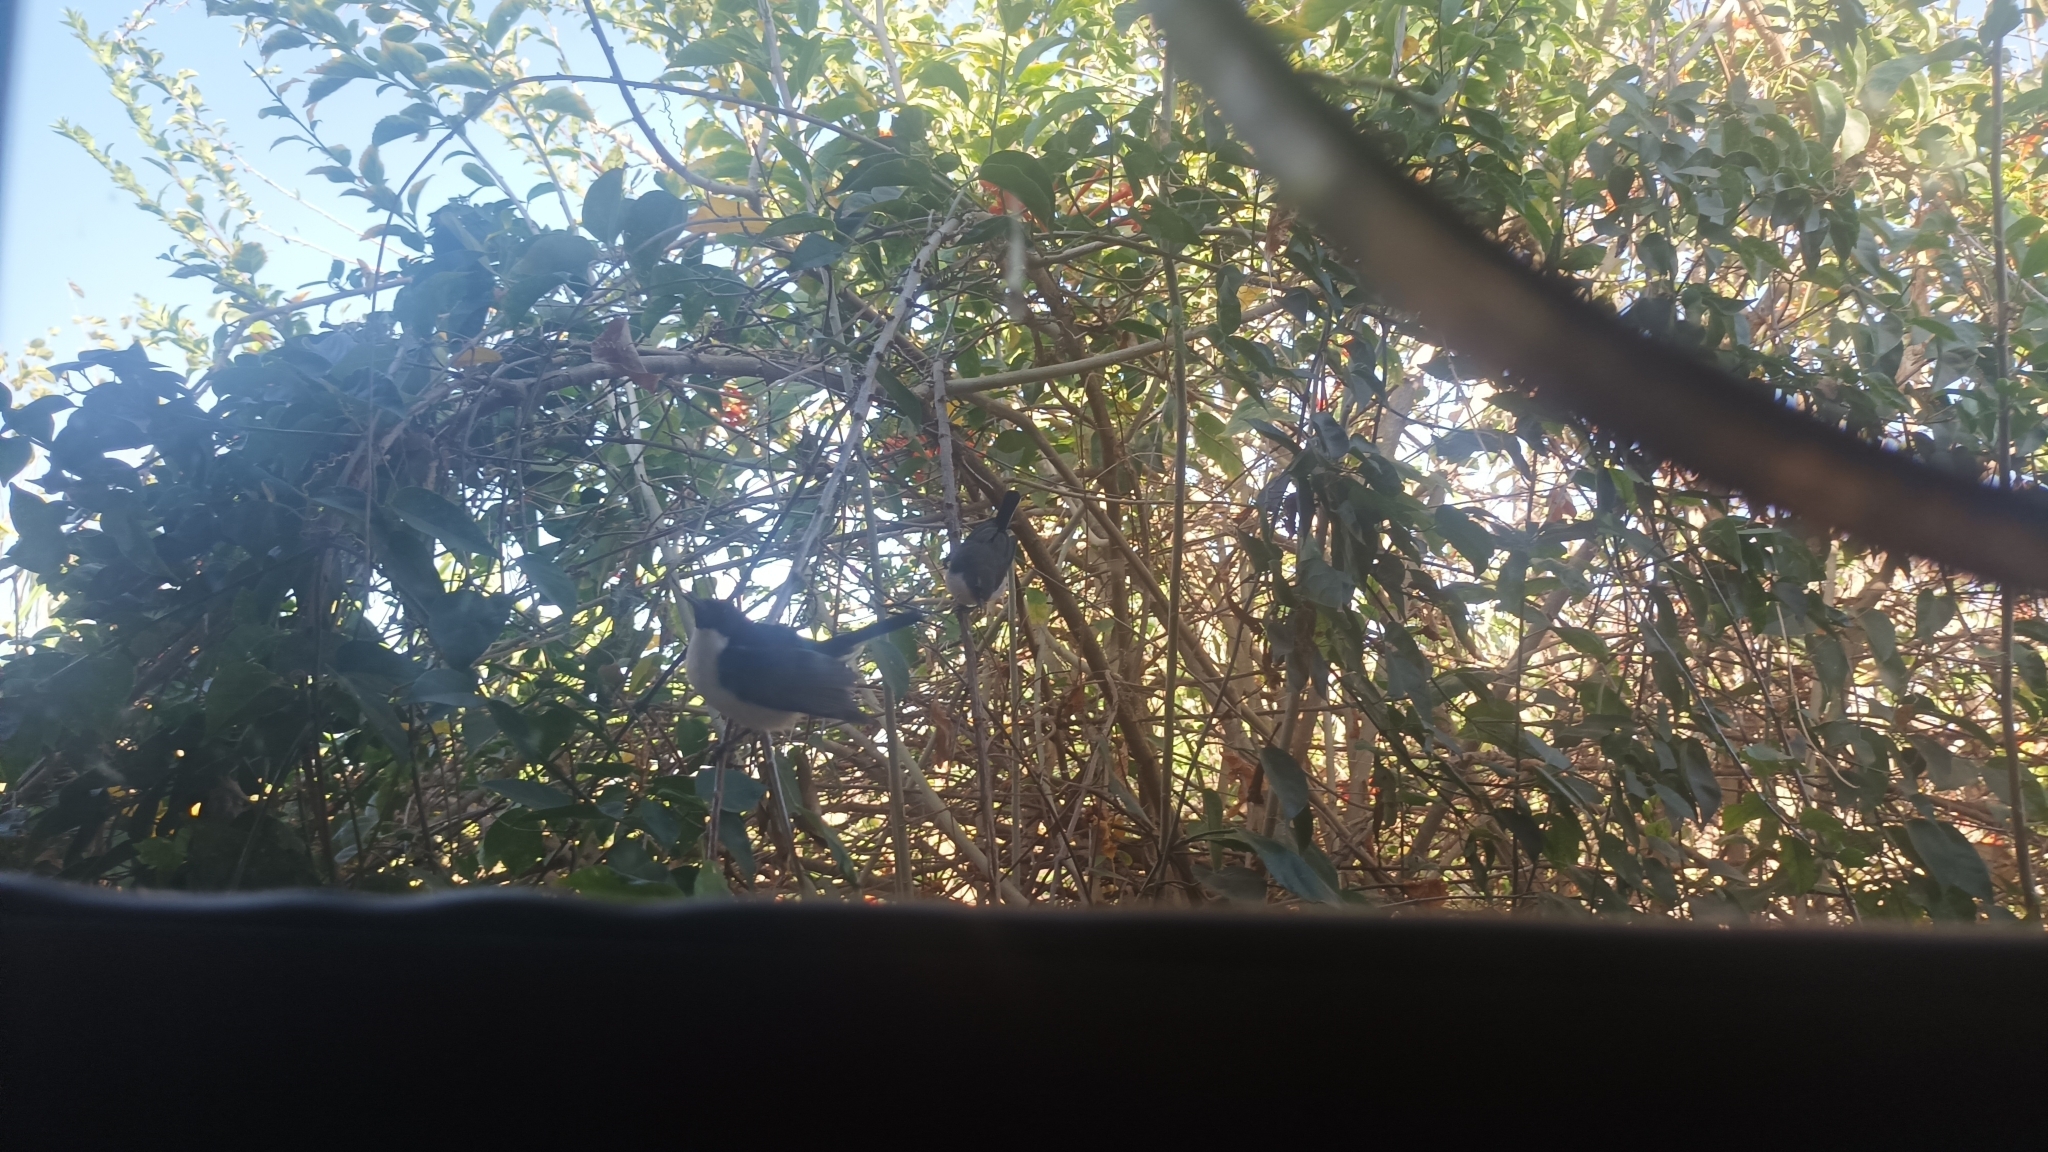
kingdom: Animalia
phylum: Chordata
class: Aves
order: Passeriformes
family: Nectariniidae
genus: Anthreptes
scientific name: Anthreptes orientalis
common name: Eastern violet-backed sunbird
